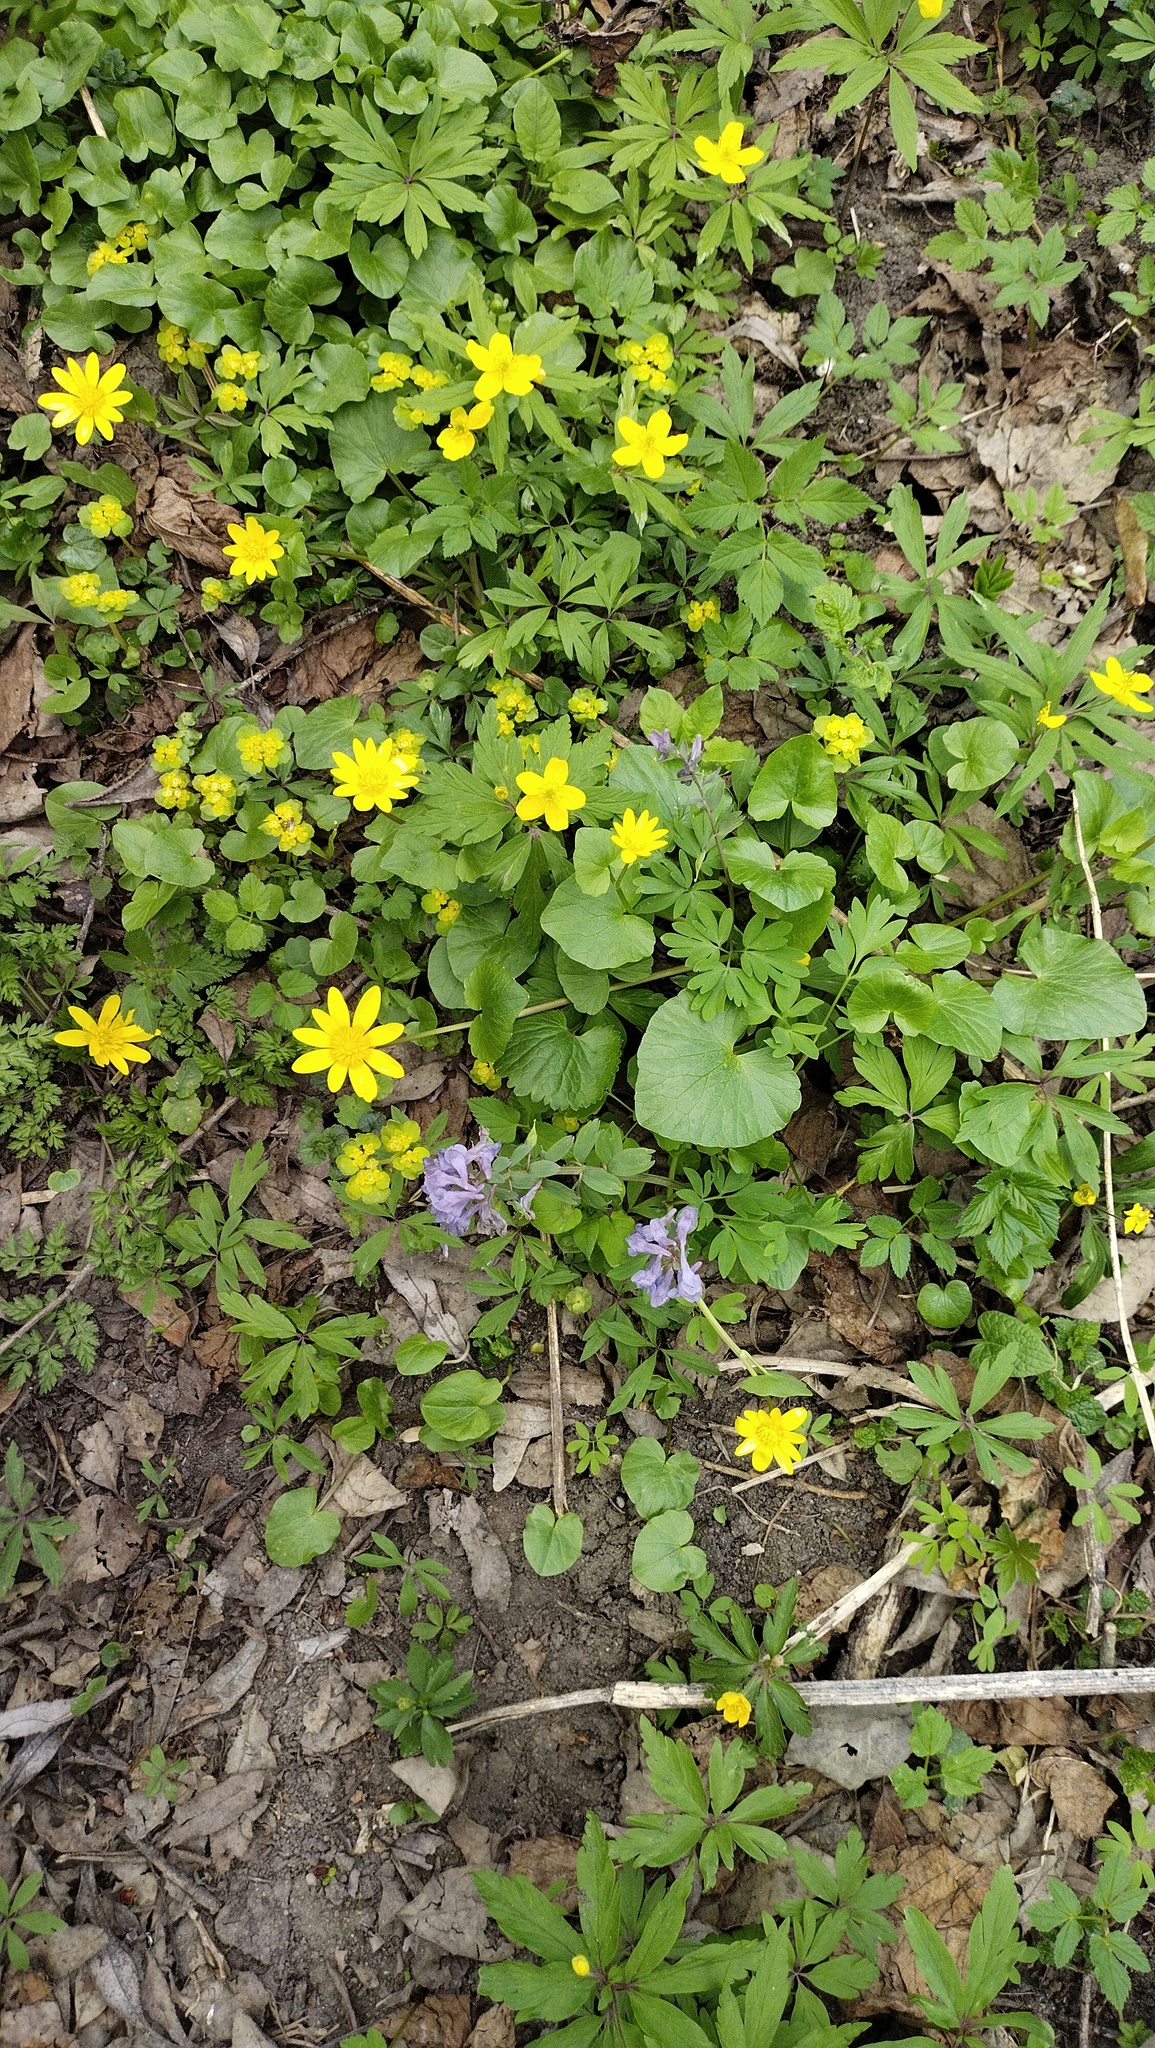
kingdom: Plantae
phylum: Tracheophyta
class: Magnoliopsida
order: Ranunculales
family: Ranunculaceae
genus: Ficaria
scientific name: Ficaria verna
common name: Lesser celandine
